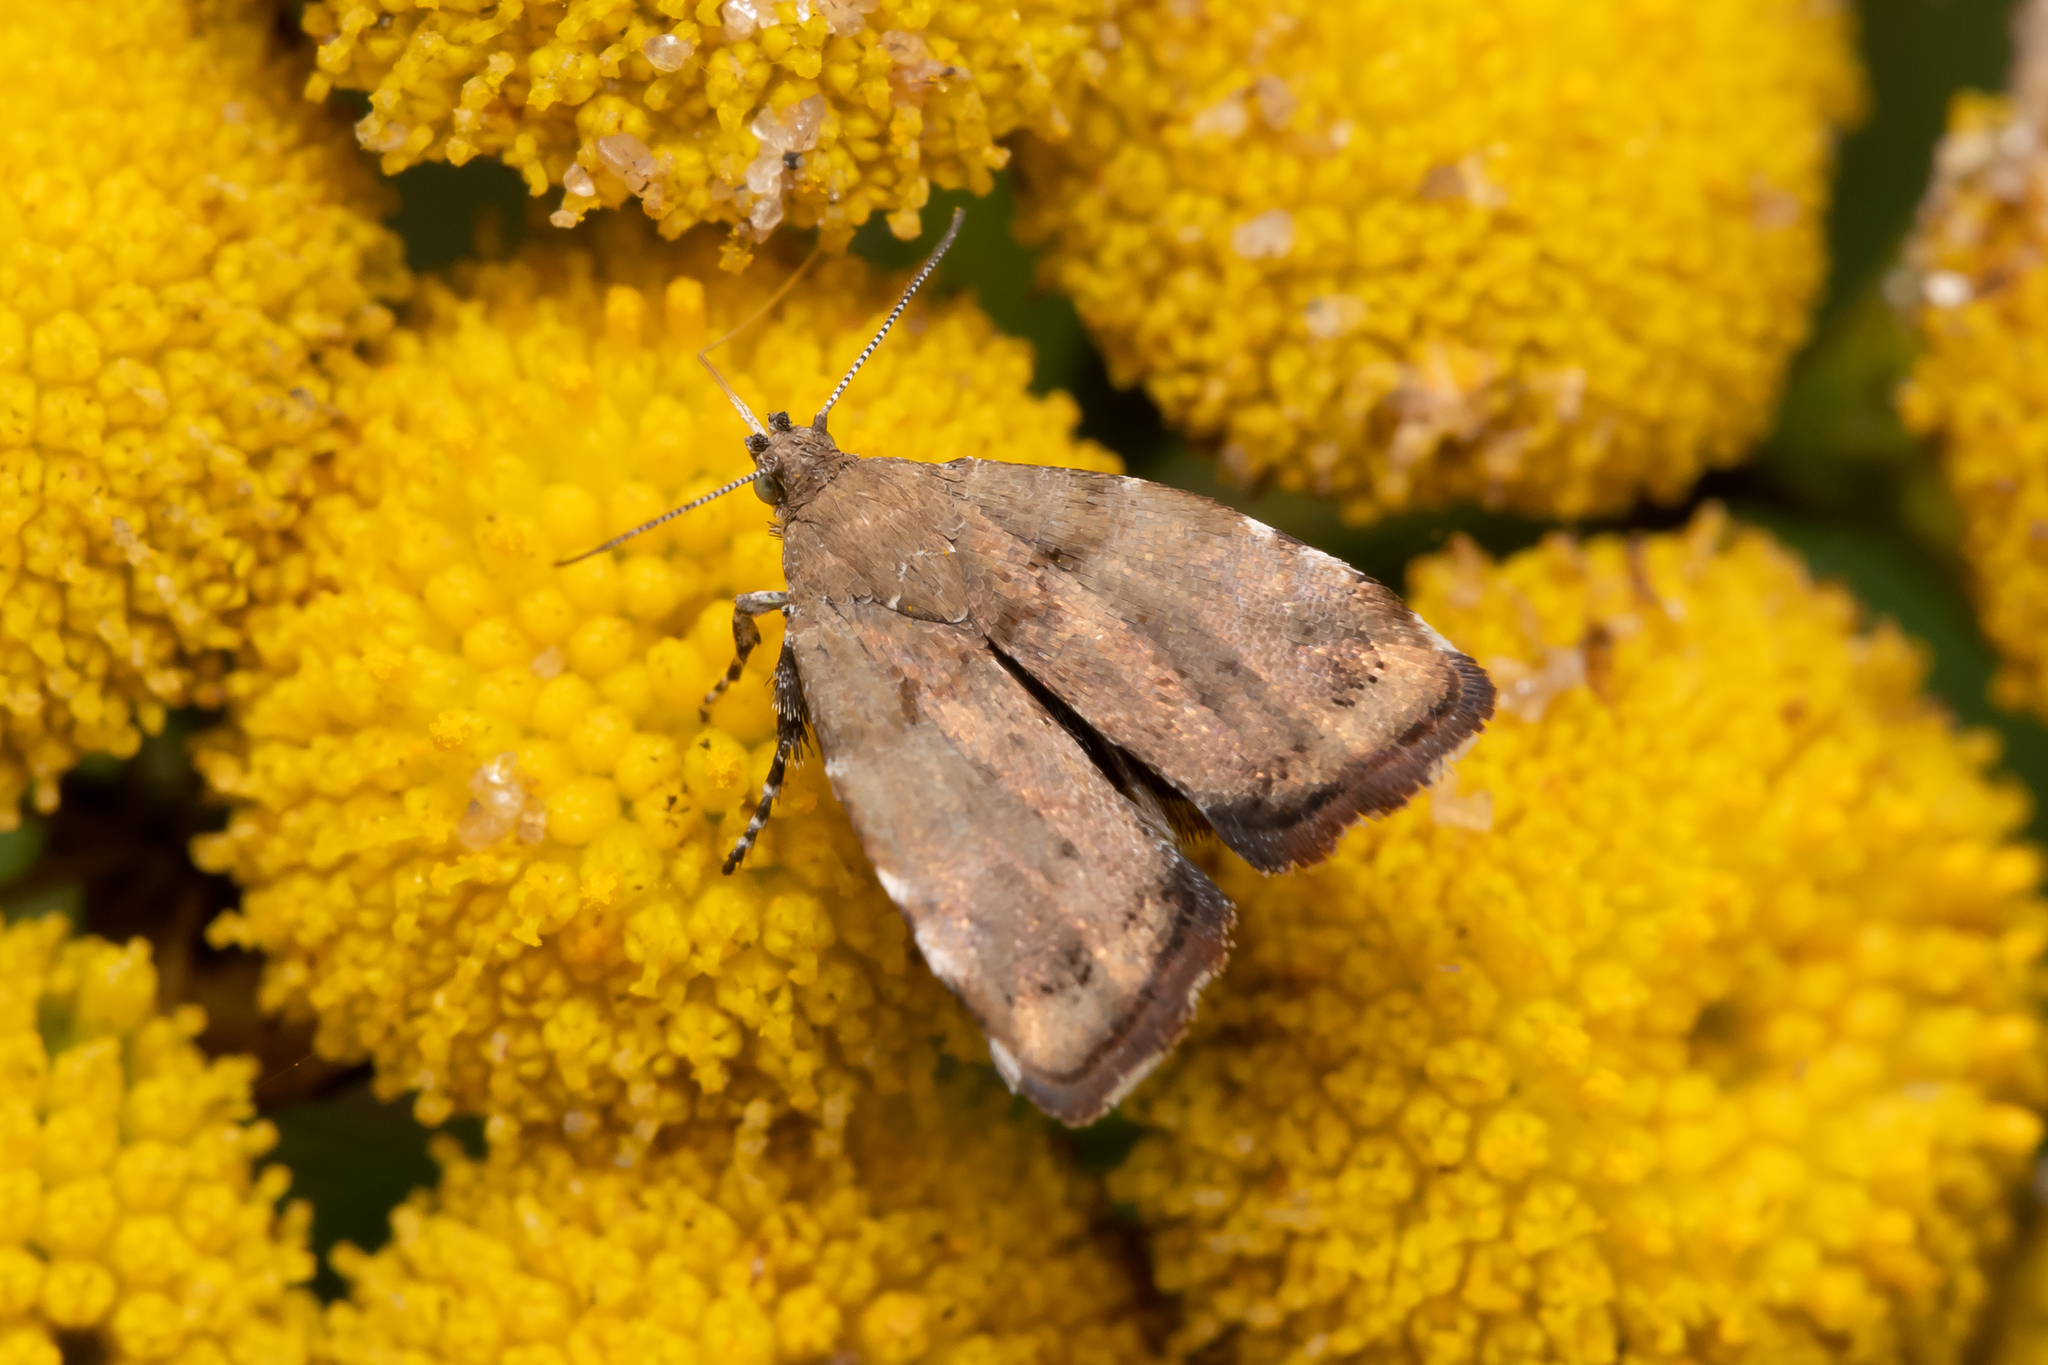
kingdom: Animalia
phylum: Arthropoda
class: Insecta
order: Lepidoptera
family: Choreutidae
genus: Choreutis
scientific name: Choreutis pariana
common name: Apple leaf skeletoniser
